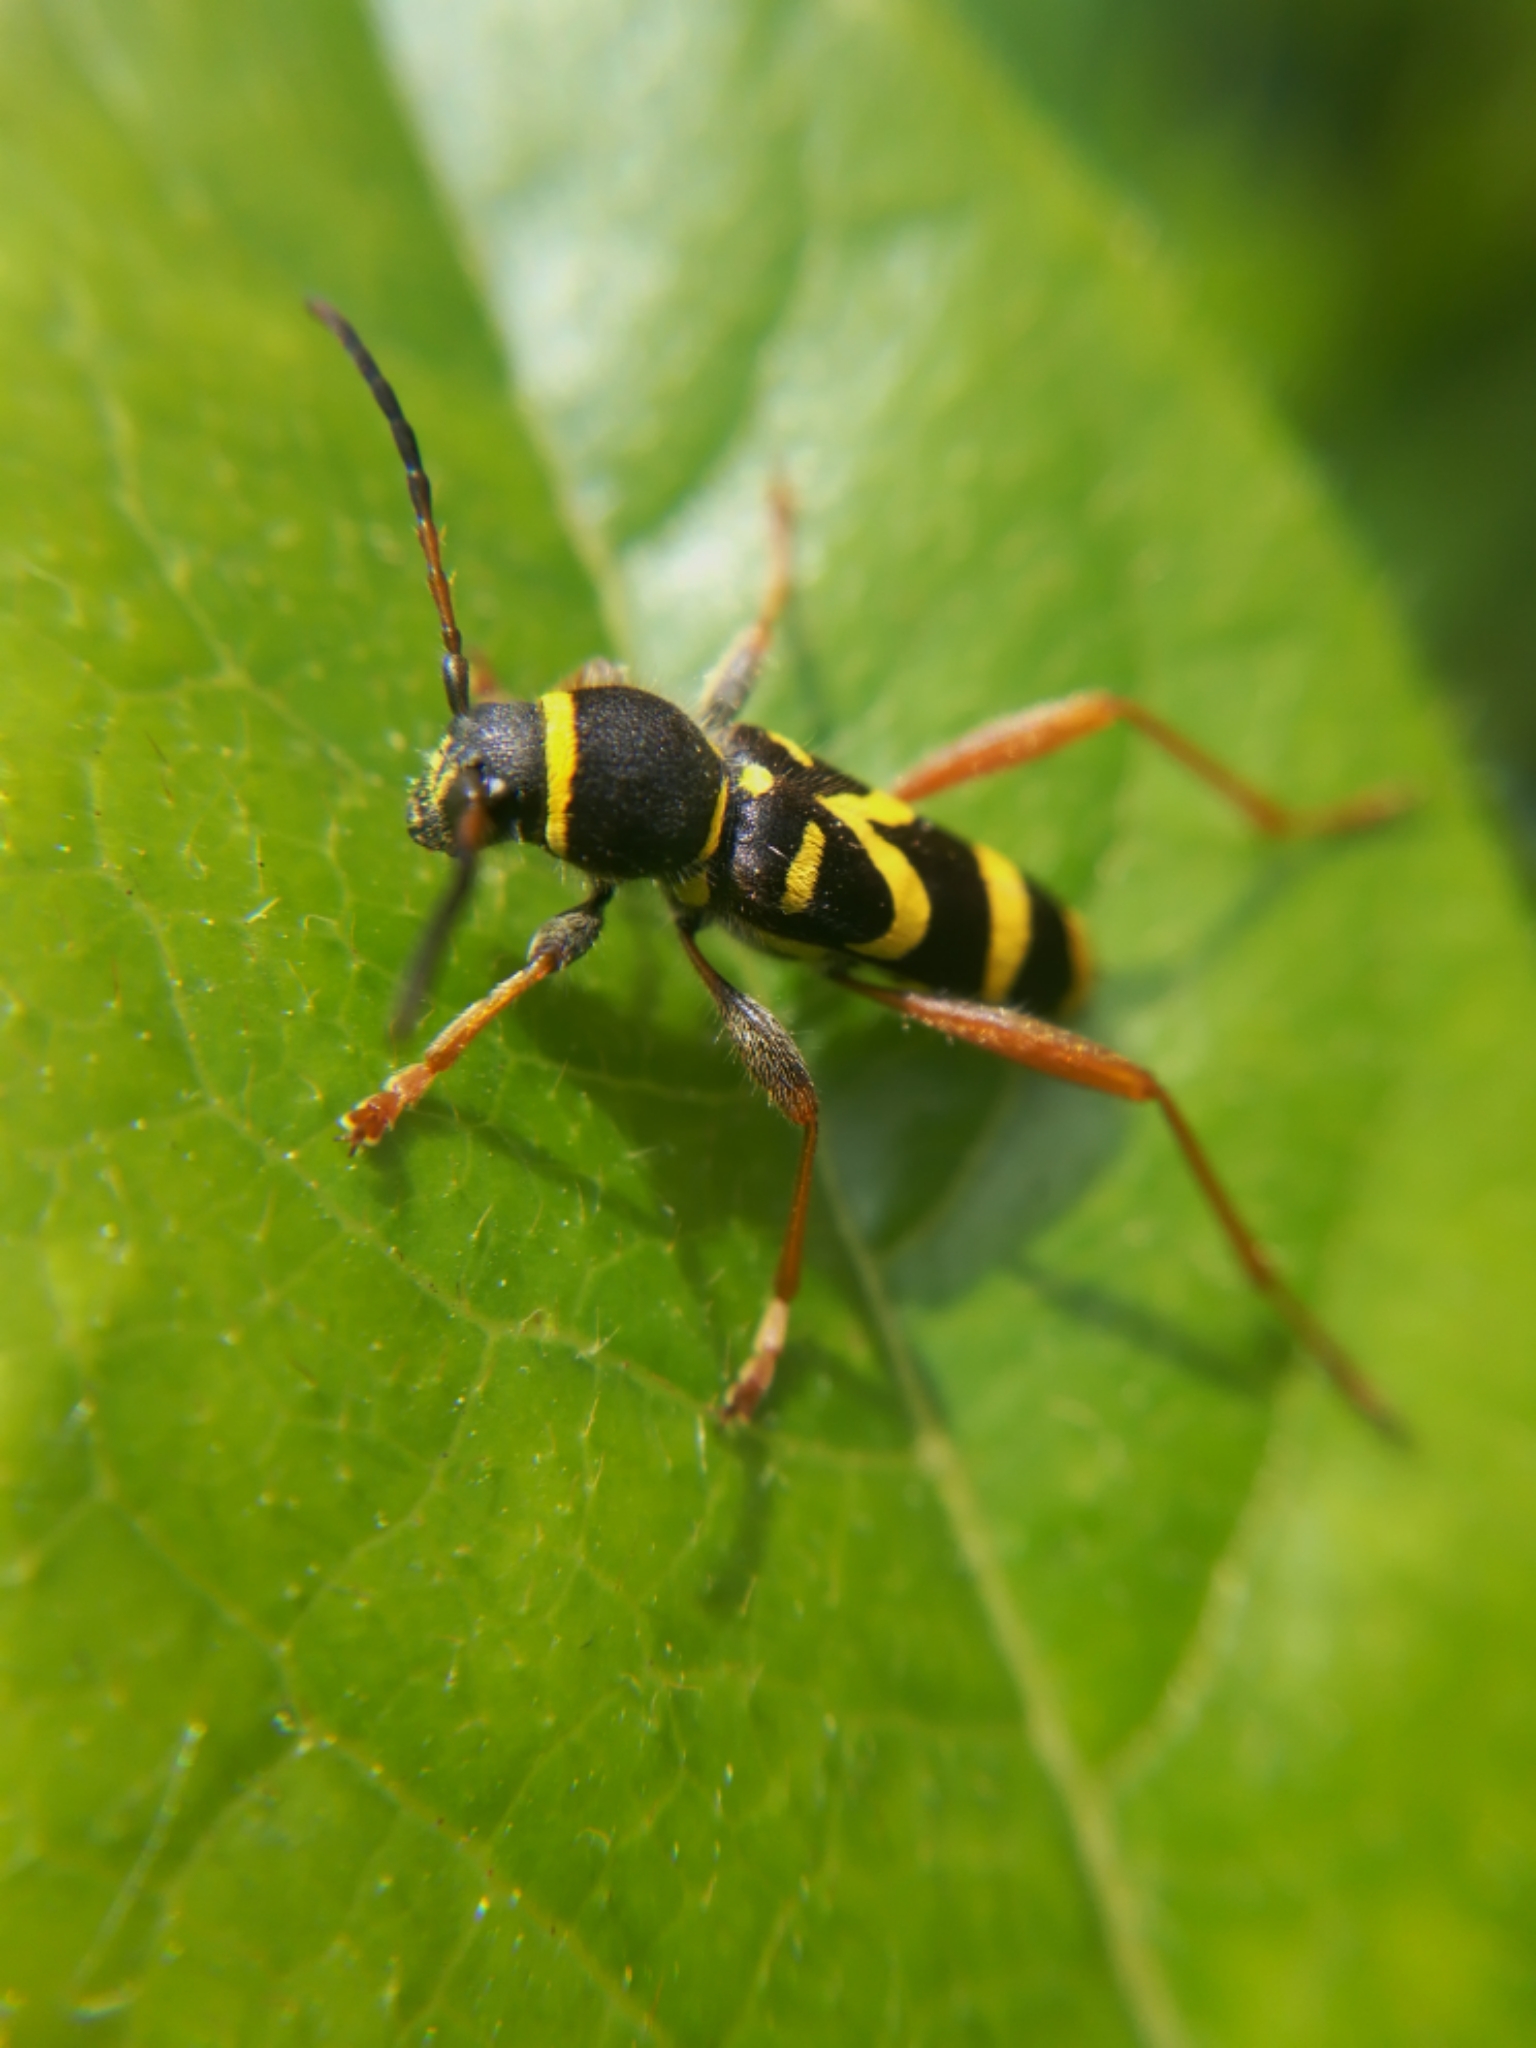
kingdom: Animalia
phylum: Arthropoda
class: Insecta
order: Coleoptera
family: Cerambycidae
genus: Clytus
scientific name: Clytus arietis
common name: Wasp beetle
